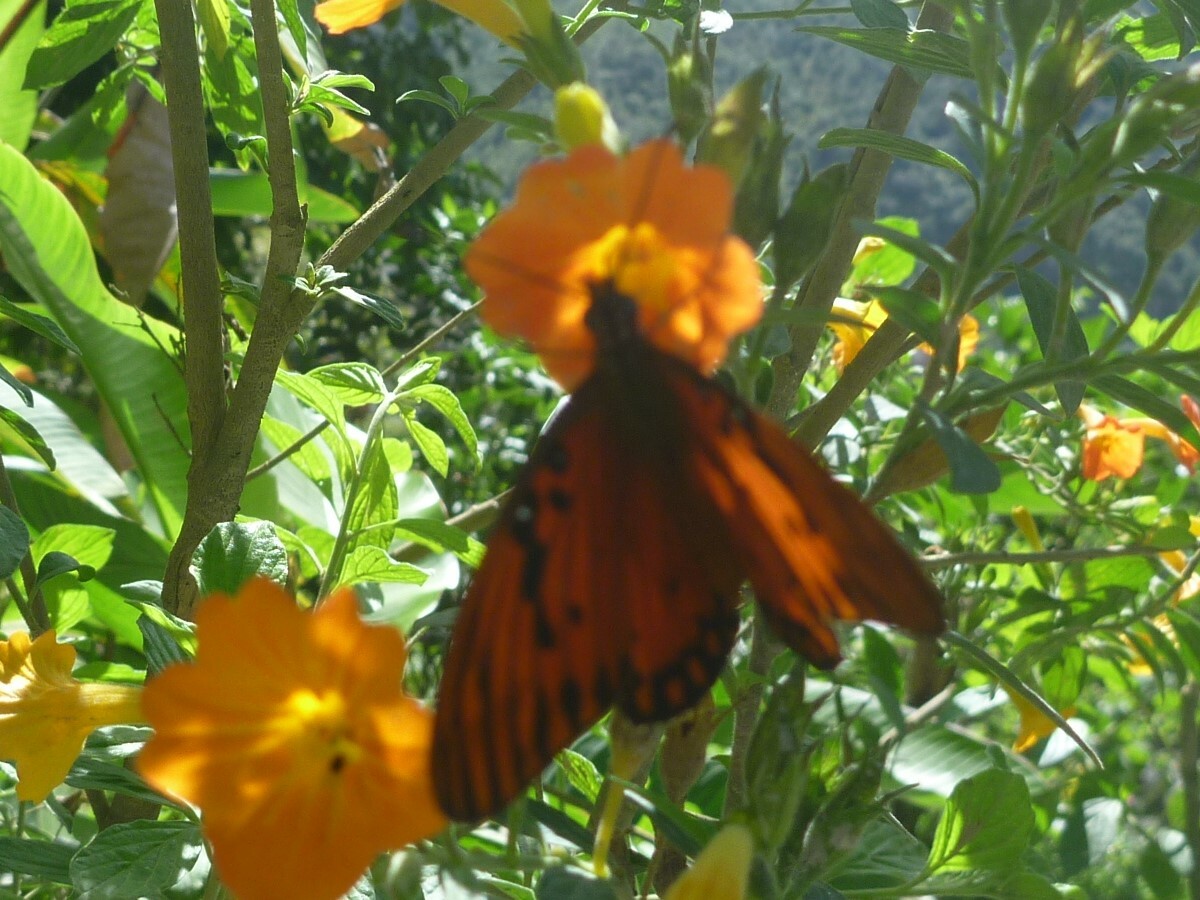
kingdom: Animalia
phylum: Arthropoda
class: Insecta
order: Lepidoptera
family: Nymphalidae
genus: Dione
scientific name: Dione vanillae
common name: Gulf fritillary
